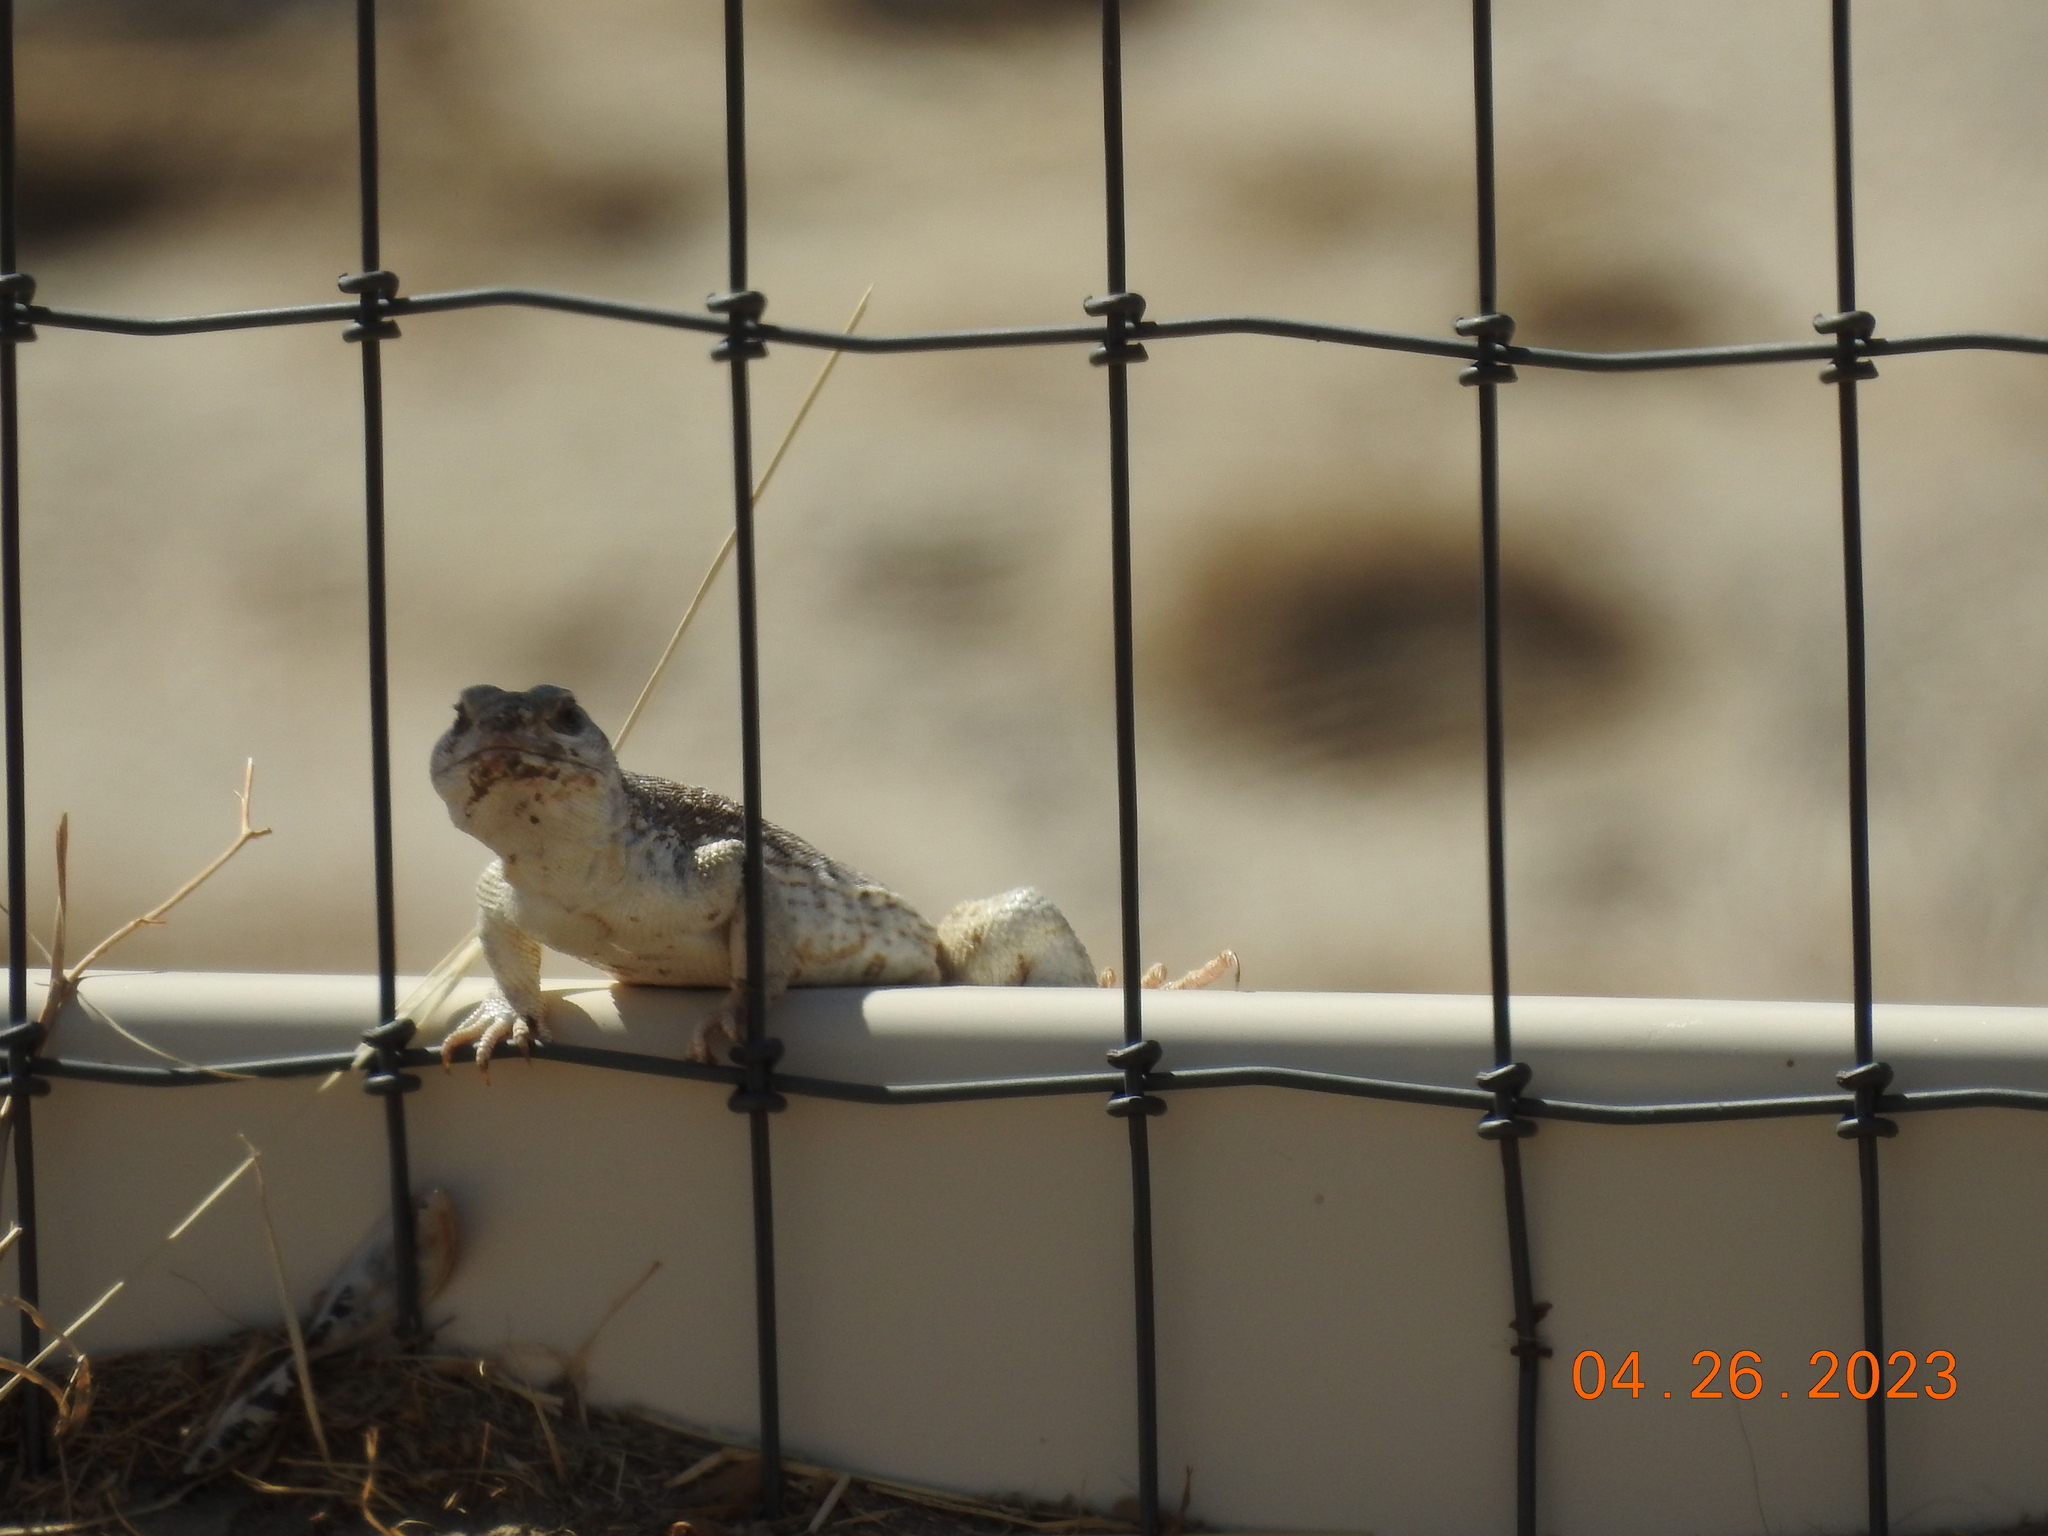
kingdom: Animalia
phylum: Chordata
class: Squamata
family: Iguanidae
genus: Dipsosaurus
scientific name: Dipsosaurus dorsalis
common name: Desert iguana
